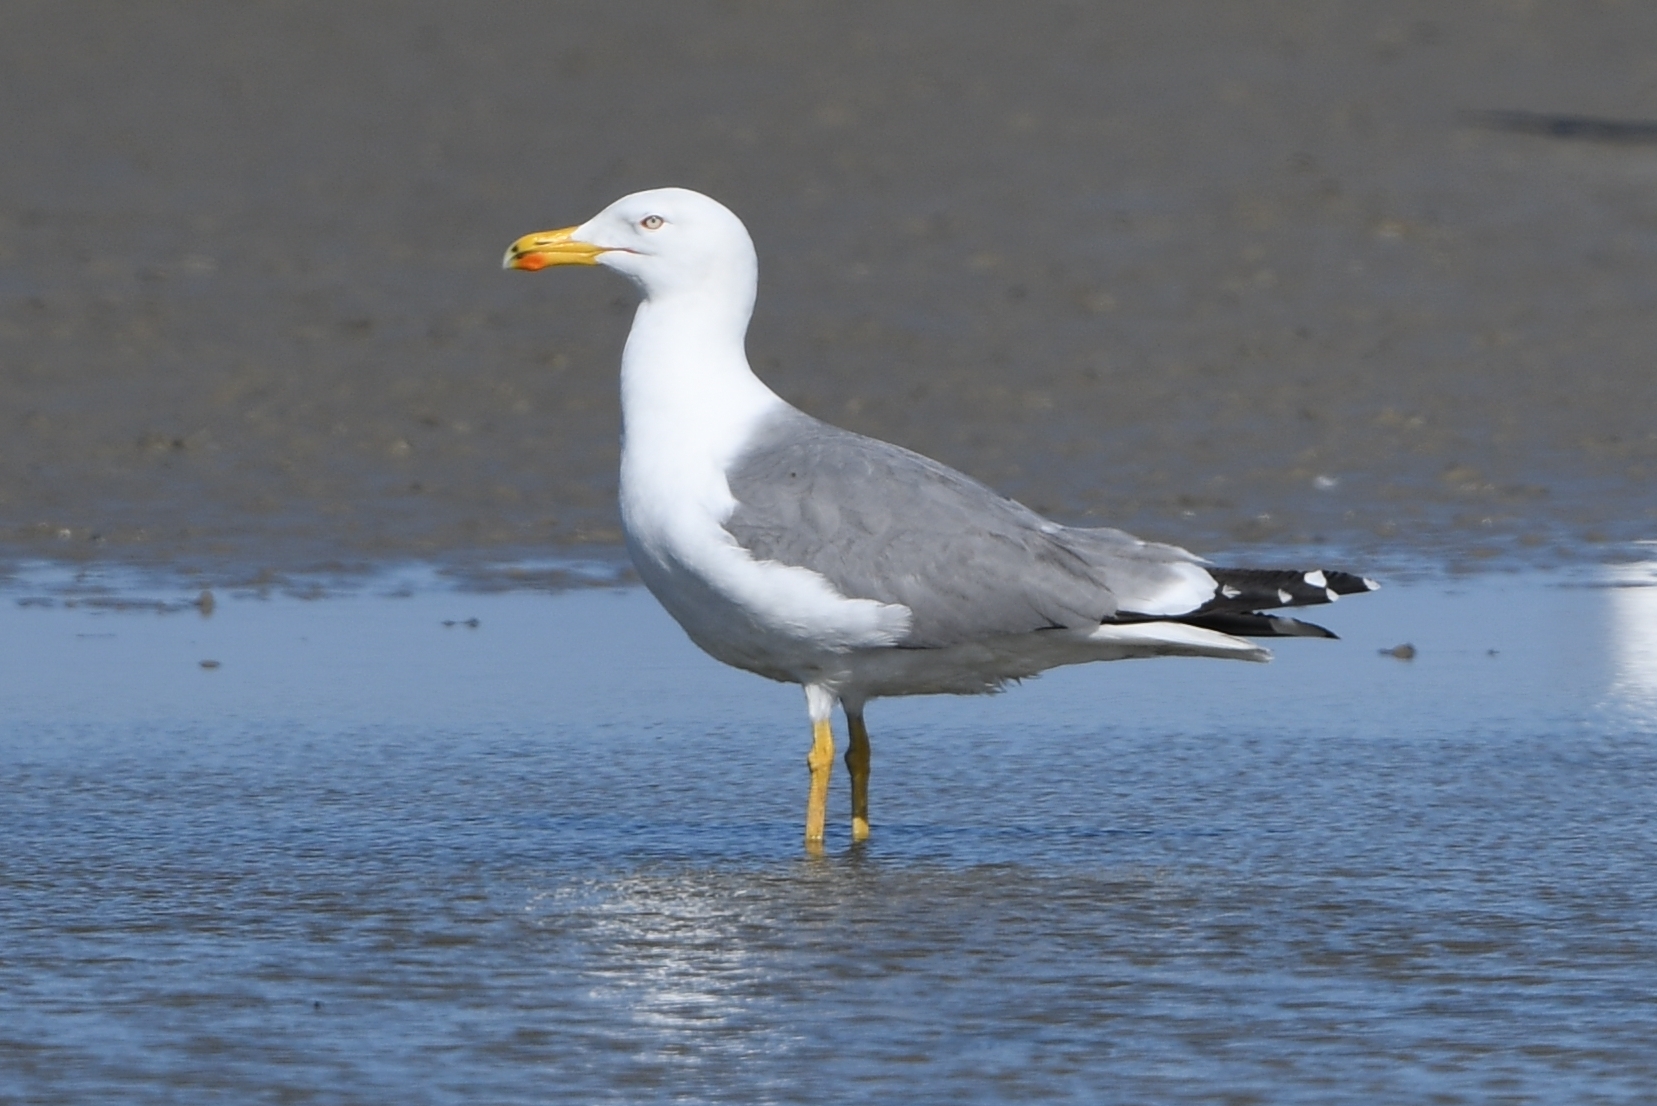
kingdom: Animalia
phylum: Chordata
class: Aves
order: Charadriiformes
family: Laridae
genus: Larus
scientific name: Larus michahellis
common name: Yellow-legged gull
